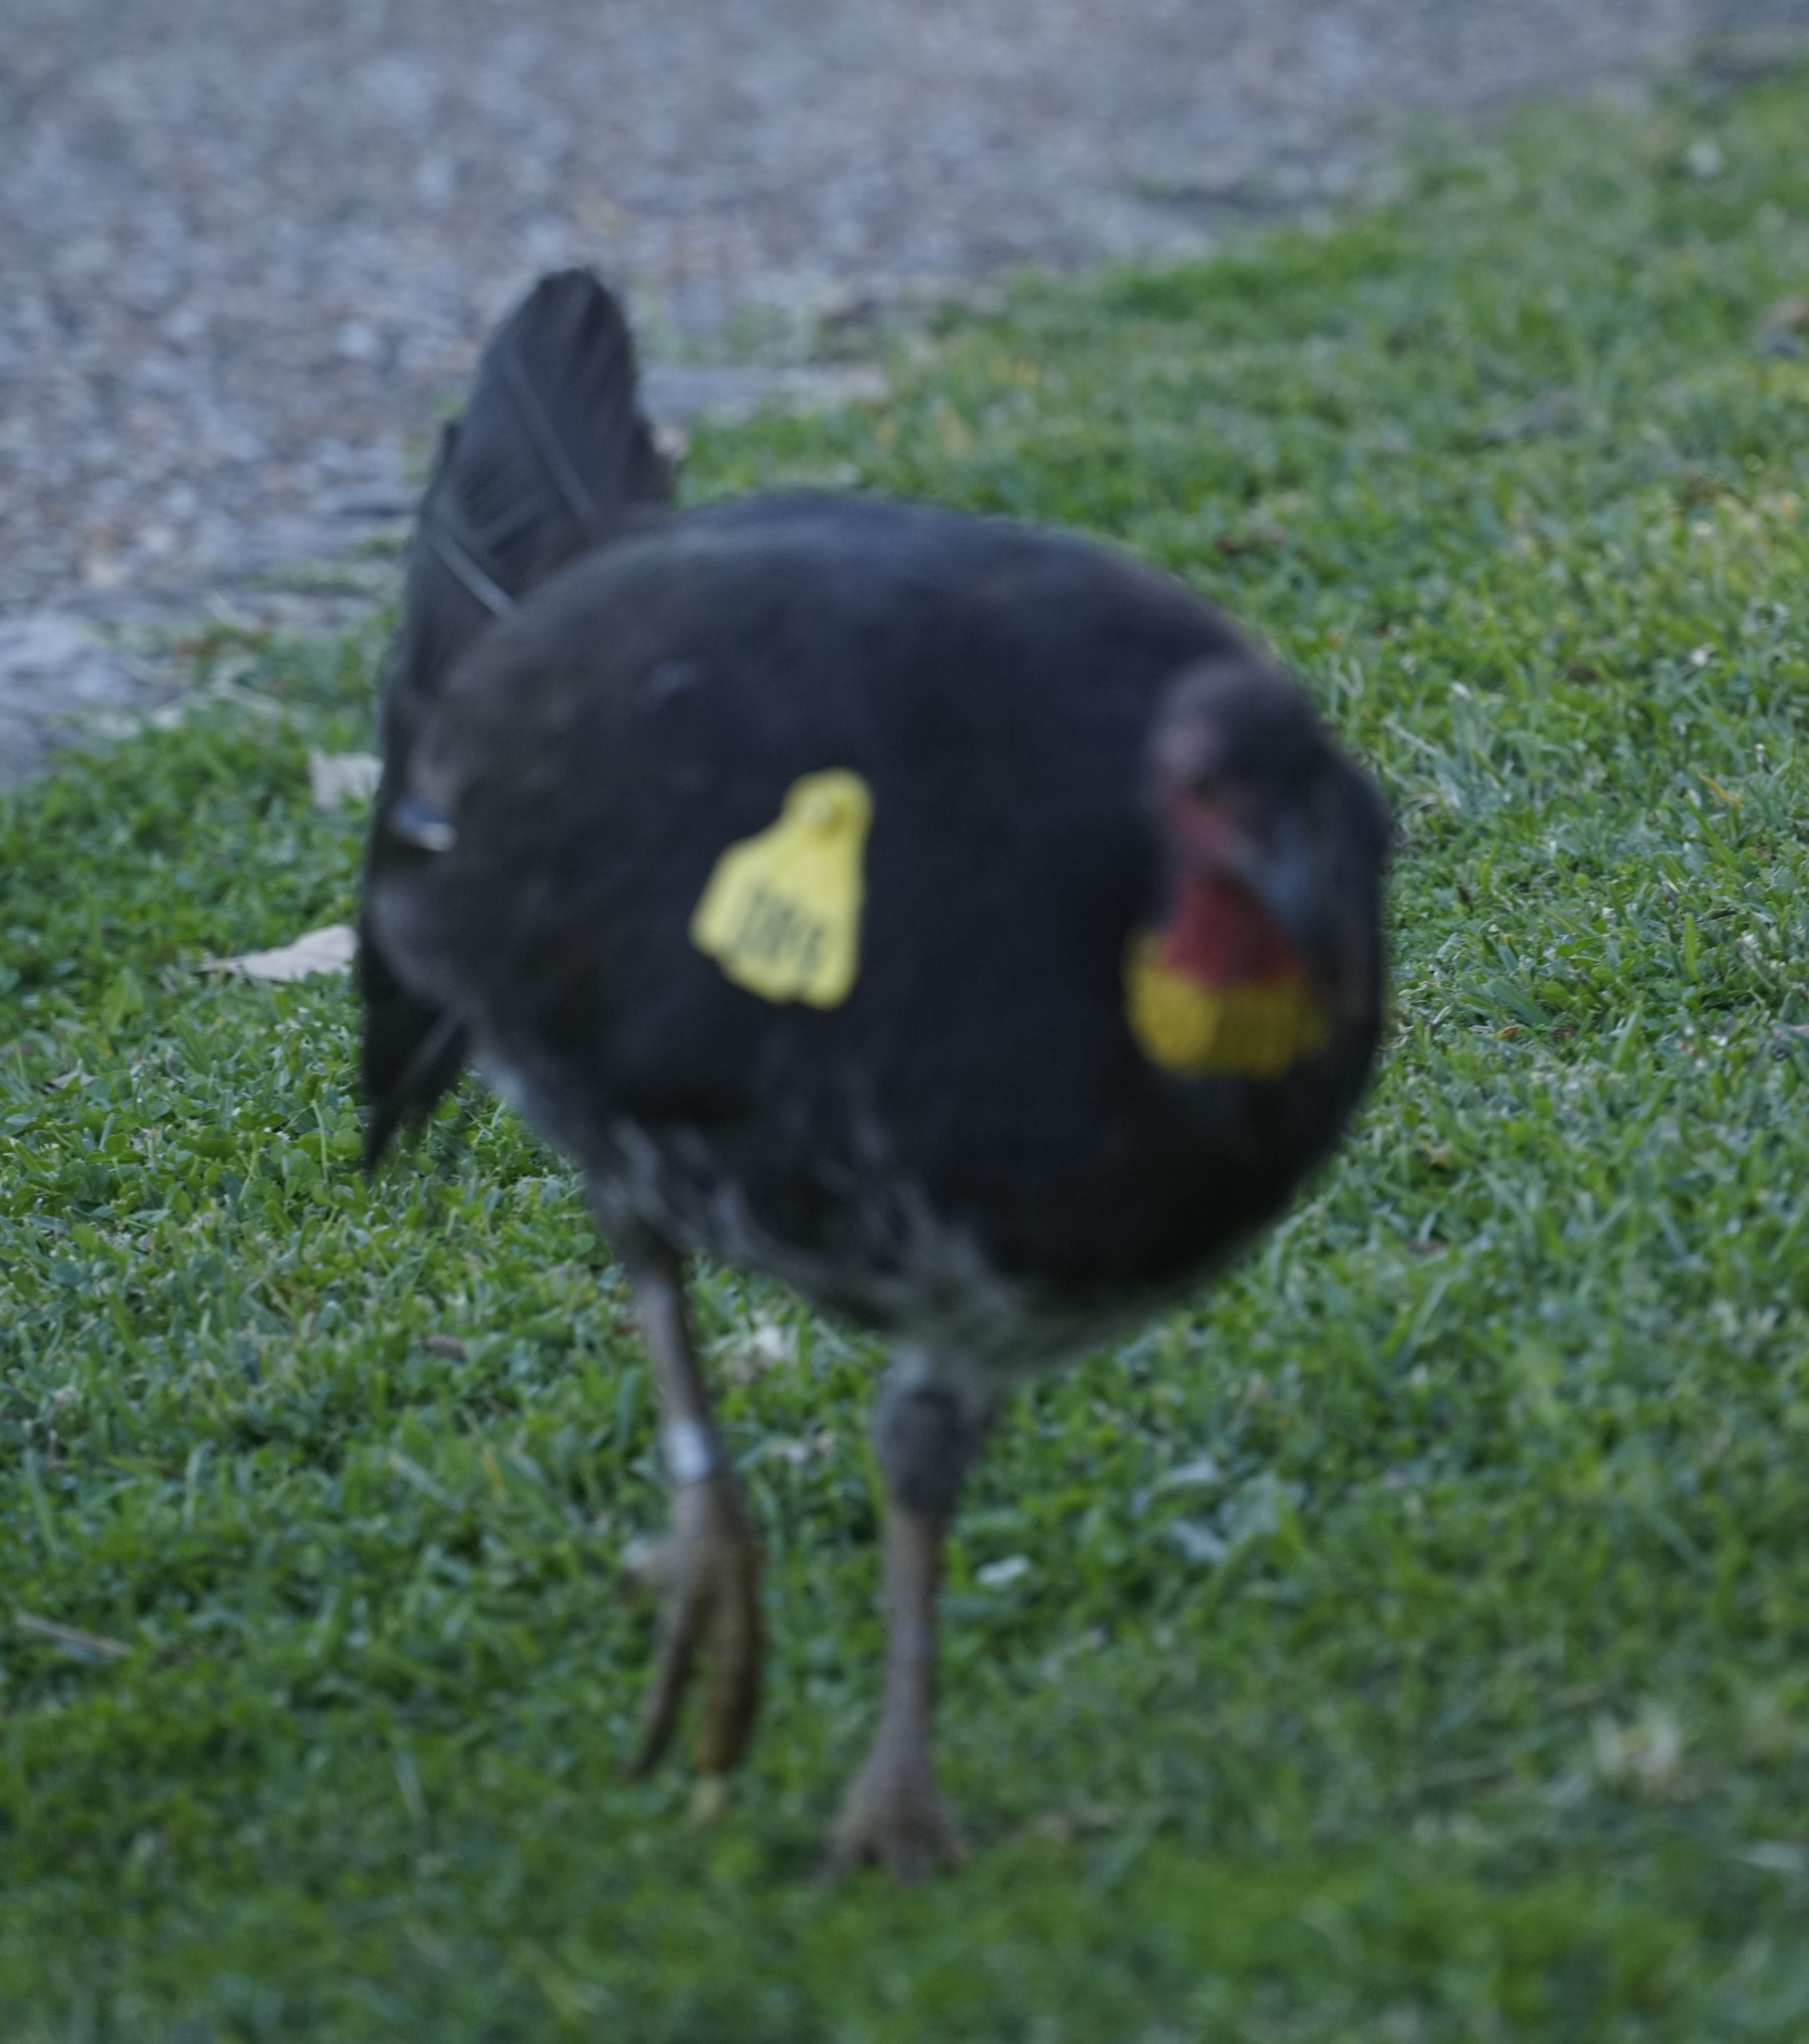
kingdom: Animalia
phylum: Chordata
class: Aves
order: Galliformes
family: Megapodiidae
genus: Alectura
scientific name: Alectura lathami
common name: Australian brushturkey
